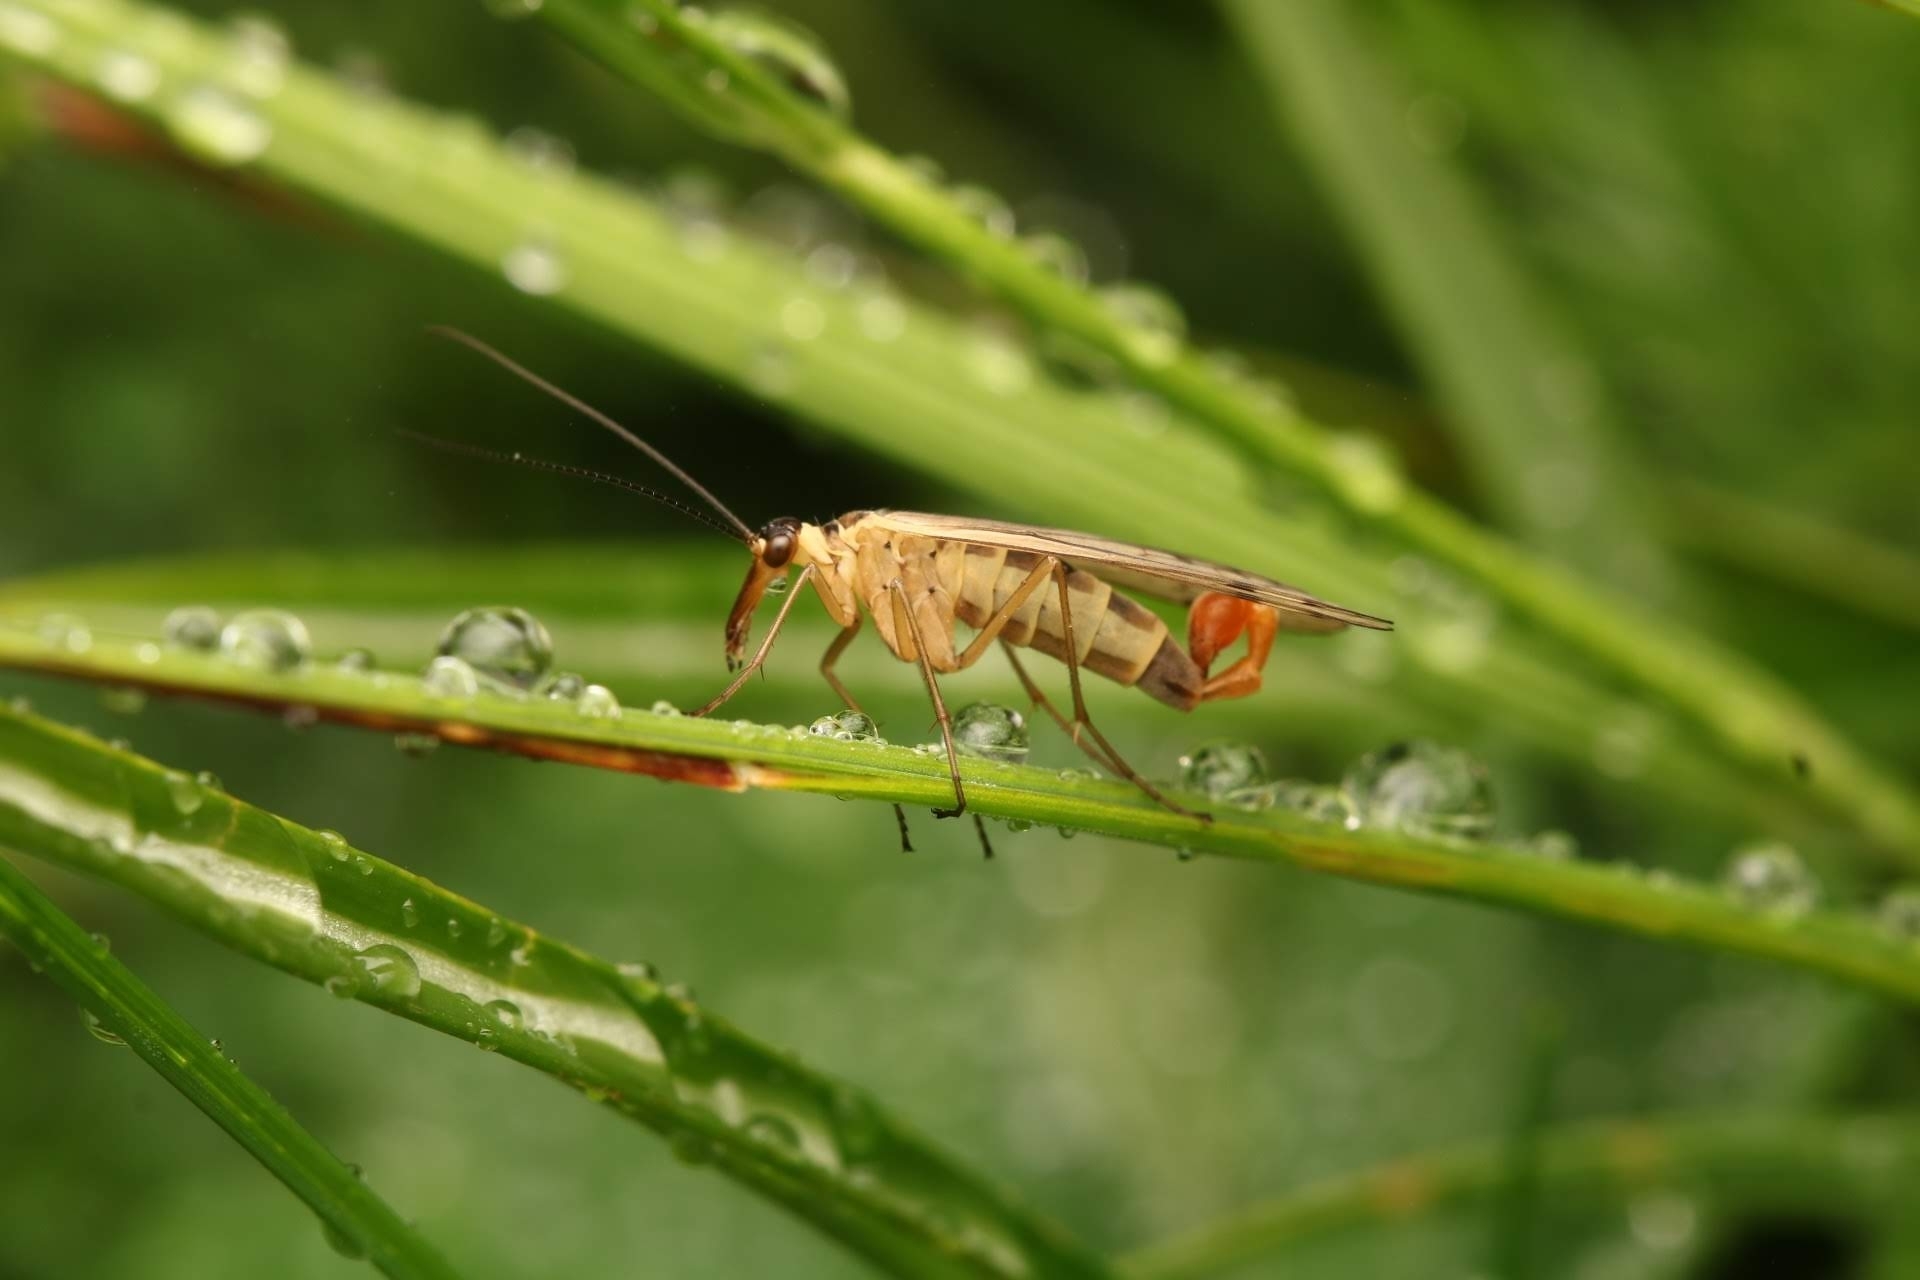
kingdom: Animalia
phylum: Arthropoda
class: Insecta
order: Mecoptera
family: Panorpidae
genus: Panorpa
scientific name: Panorpa alpina
